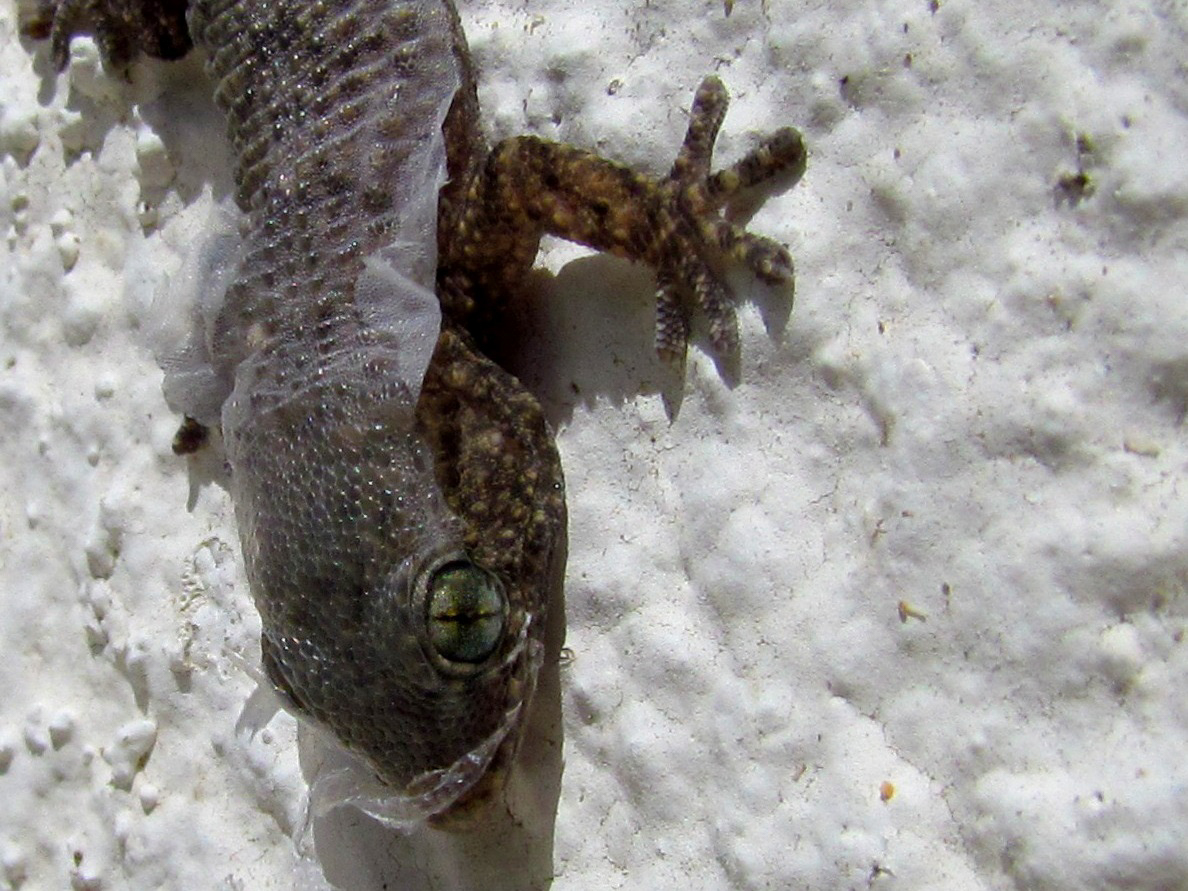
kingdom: Animalia
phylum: Chordata
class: Squamata
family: Phyllodactylidae
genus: Tarentola
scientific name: Tarentola mauritanica
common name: Moorish gecko
